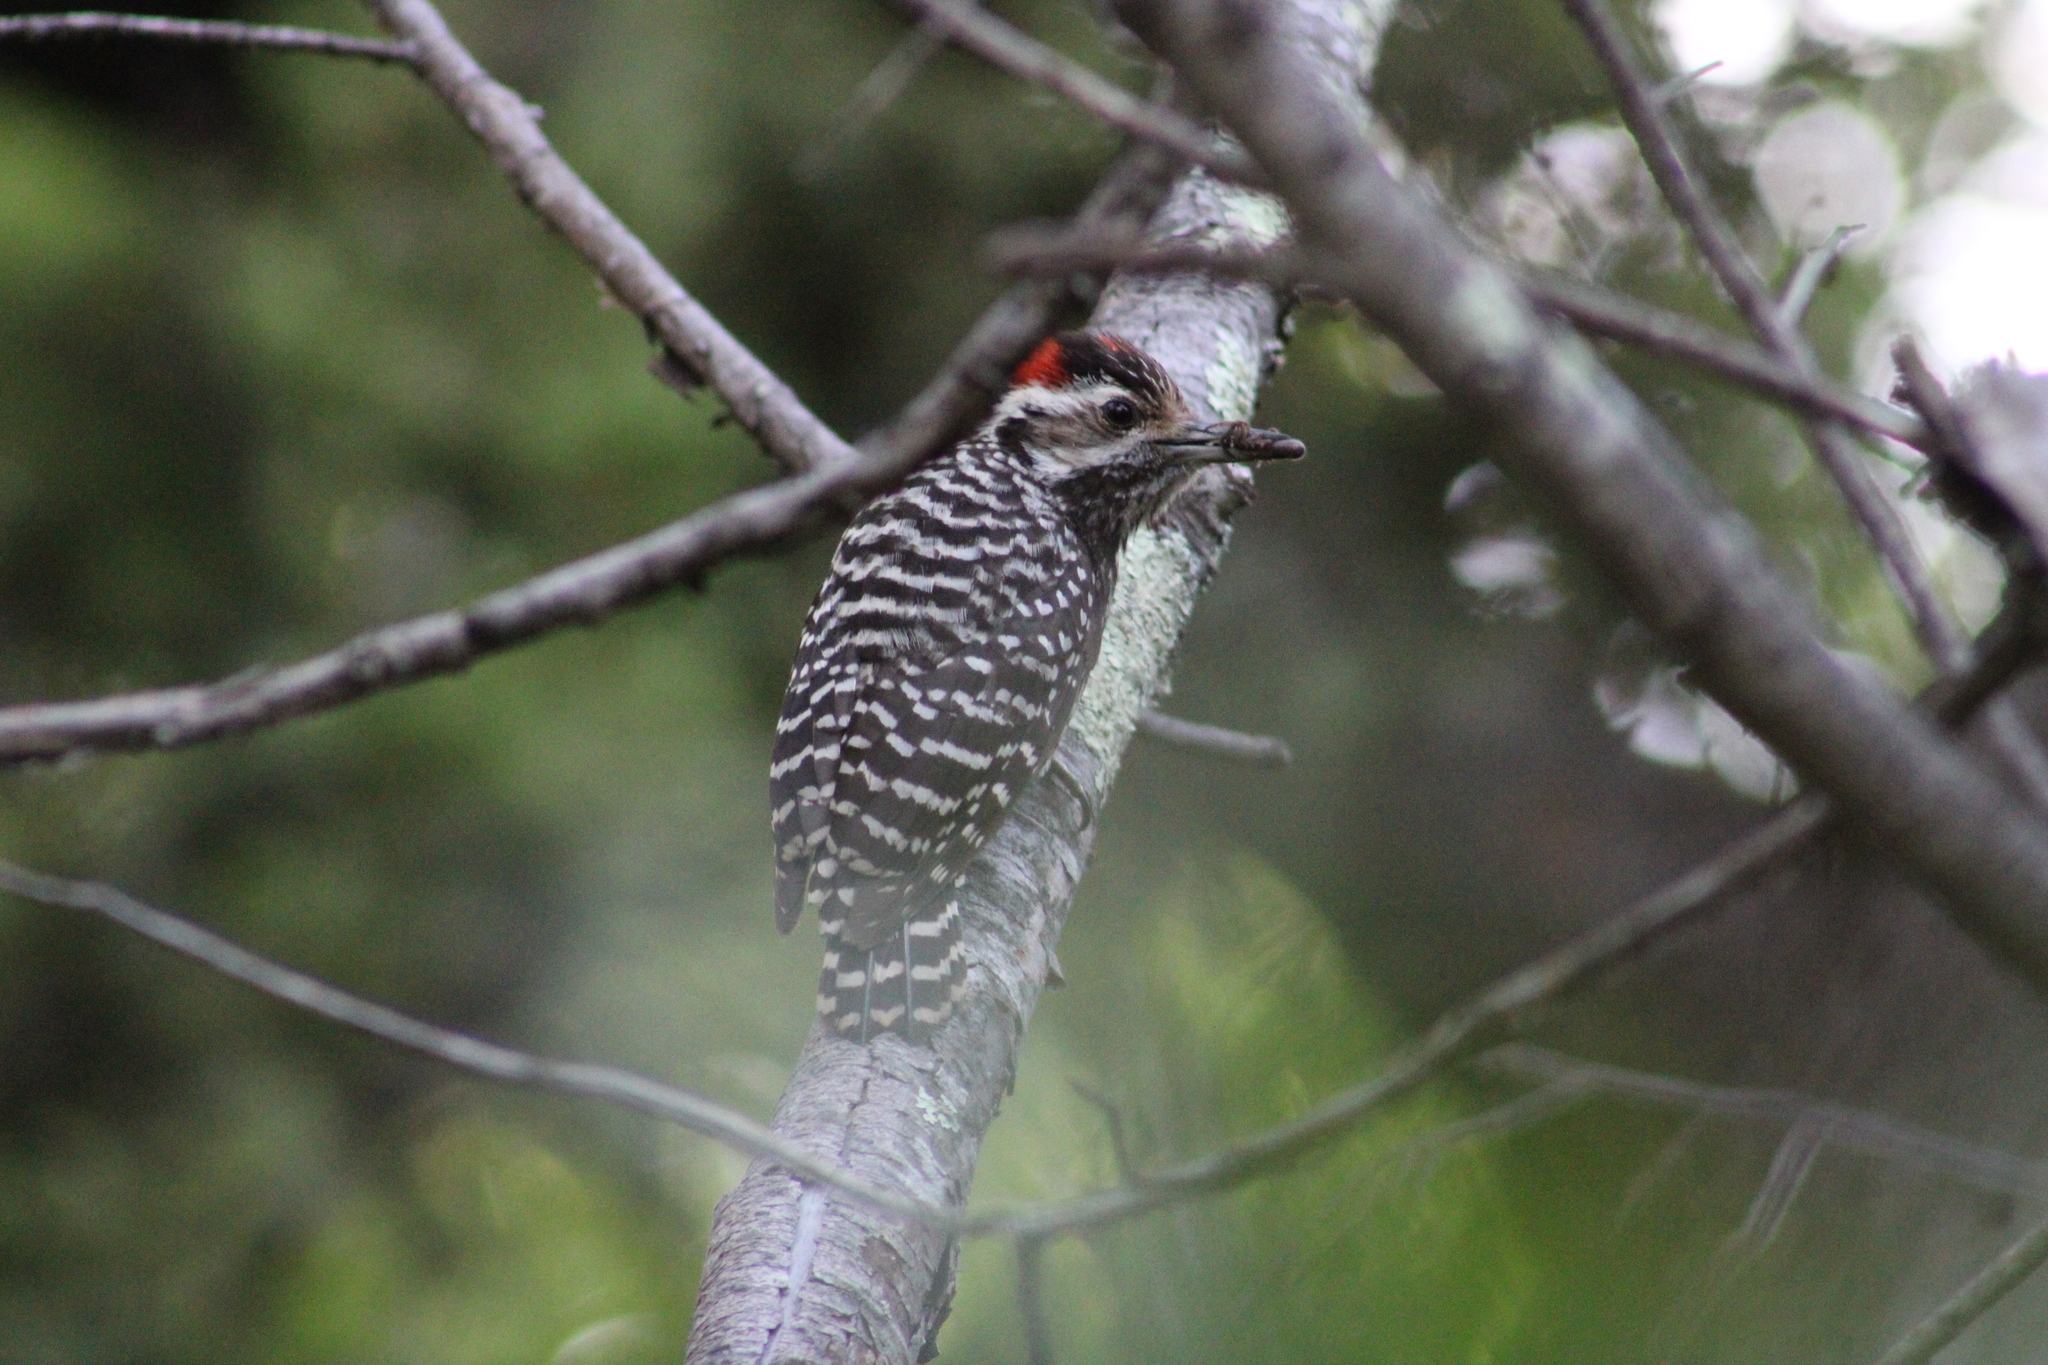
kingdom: Animalia
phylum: Chordata
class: Aves
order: Piciformes
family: Picidae
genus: Veniliornis
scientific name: Veniliornis lignarius
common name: Striped woodpecker
